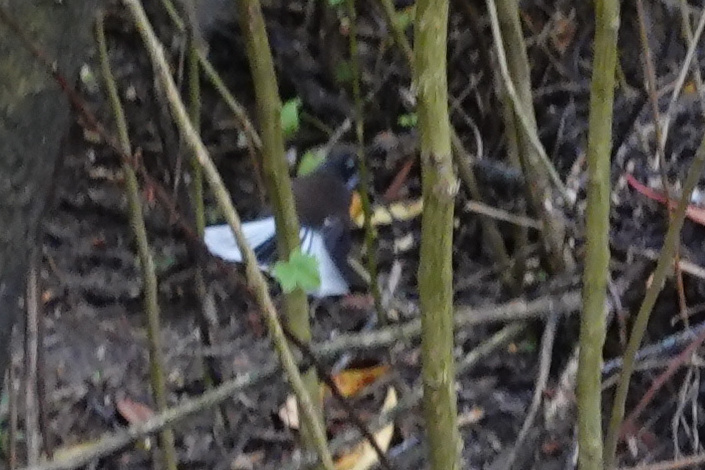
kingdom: Animalia
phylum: Chordata
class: Aves
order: Passeriformes
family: Rhipiduridae
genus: Rhipidura
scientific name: Rhipidura fuliginosa
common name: New zealand fantail
